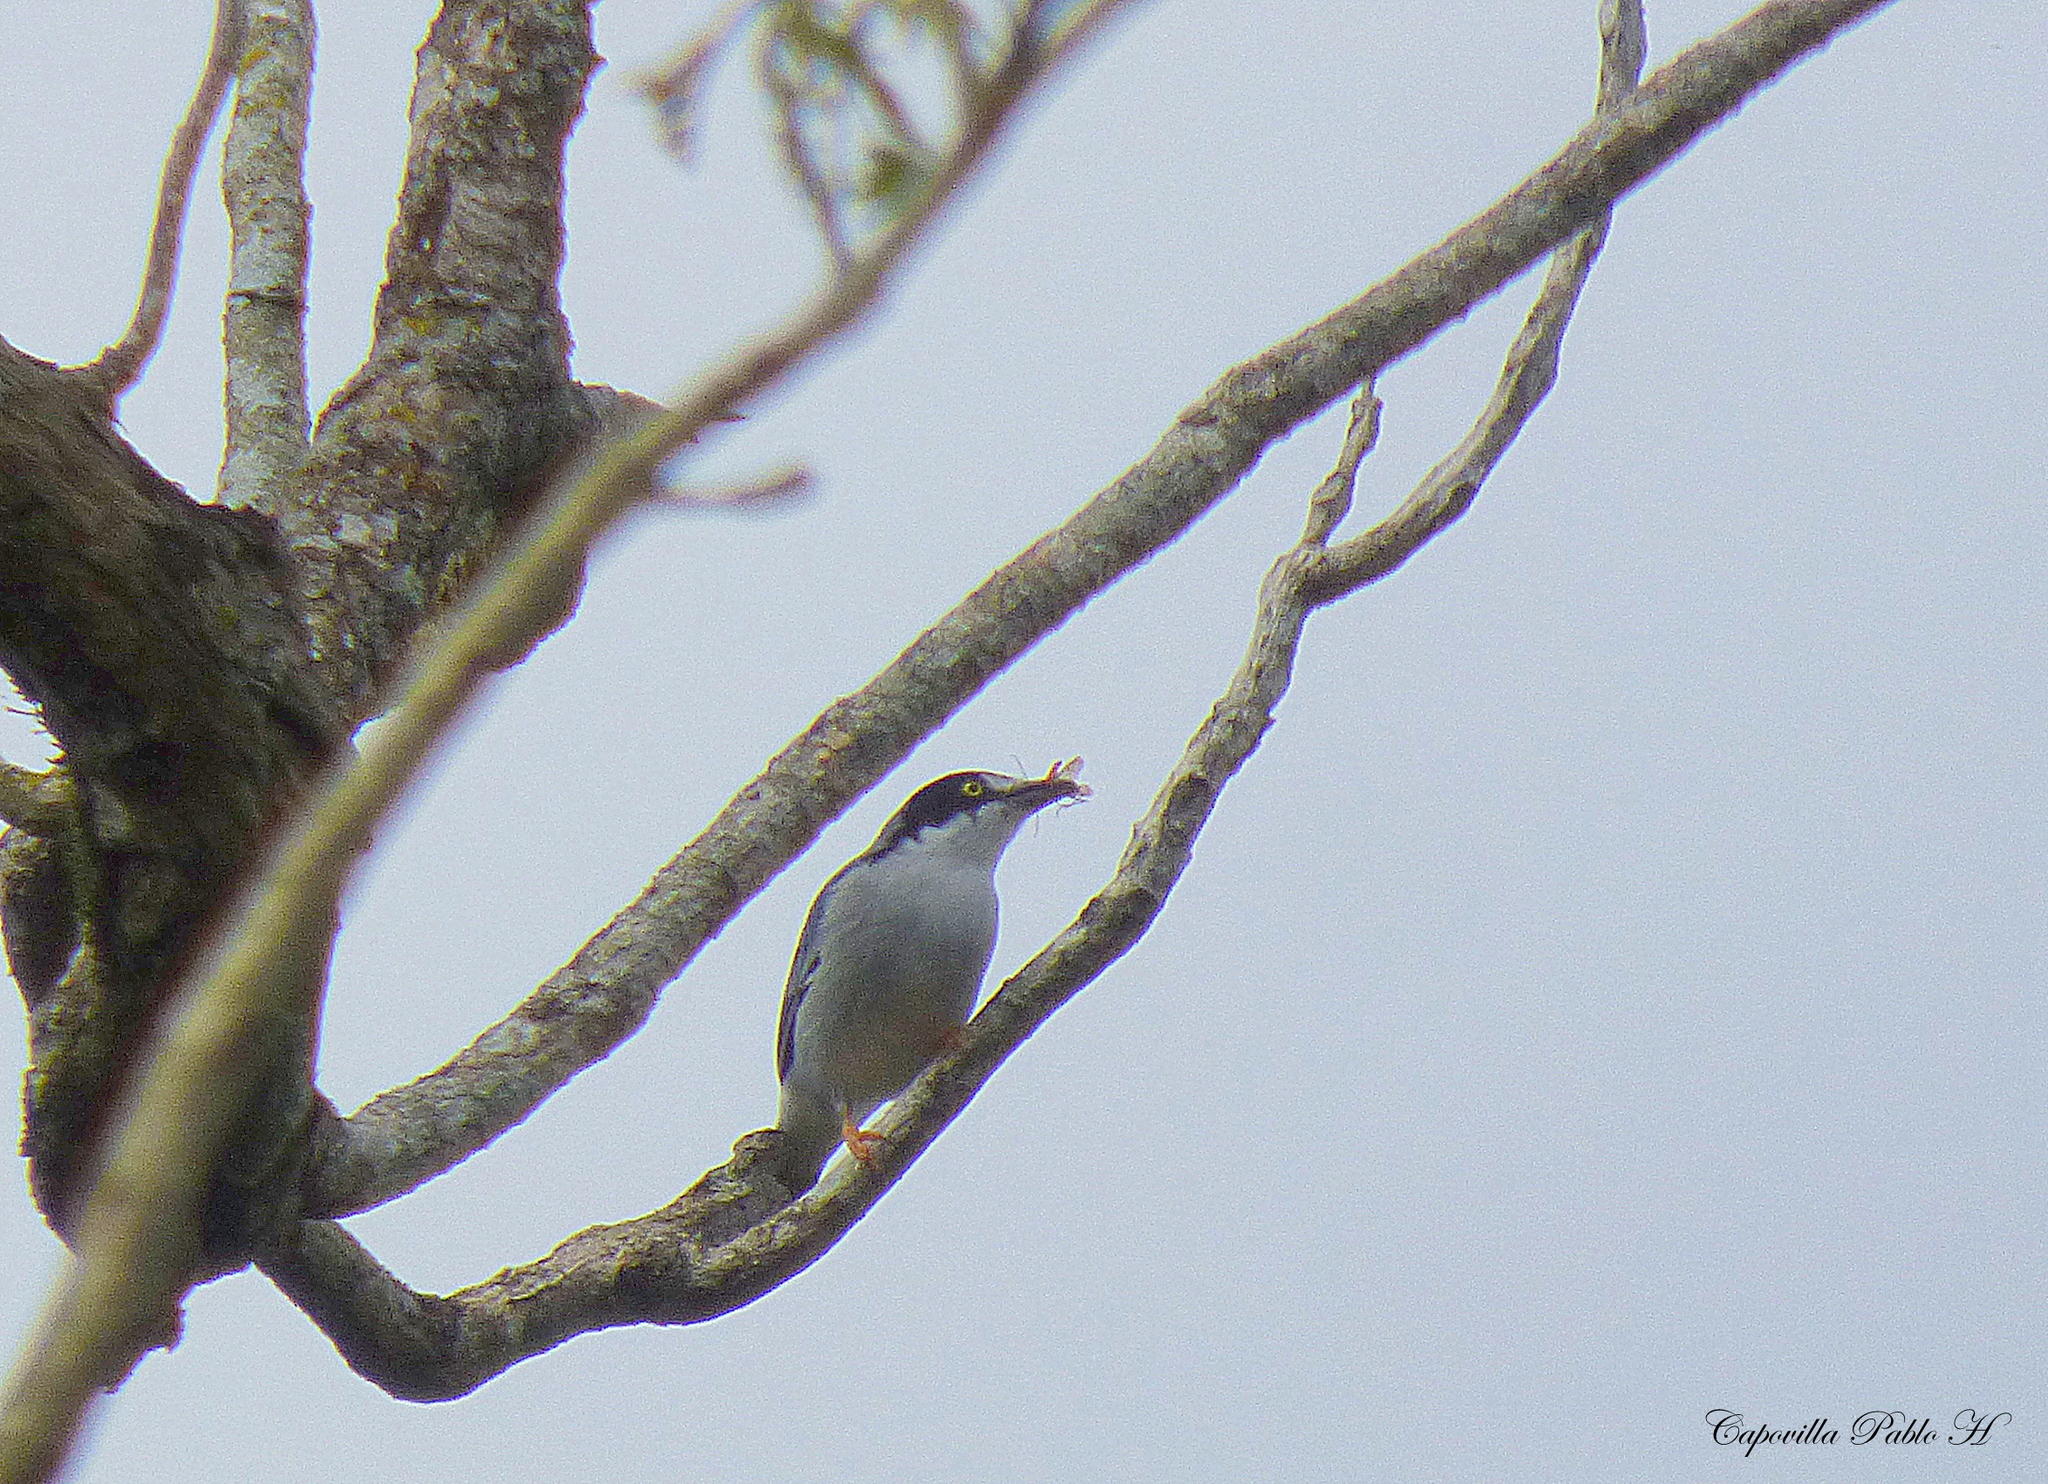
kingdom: Animalia
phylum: Chordata
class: Aves
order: Passeriformes
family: Thraupidae
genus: Nemosia
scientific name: Nemosia pileata
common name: Hooded tanager
